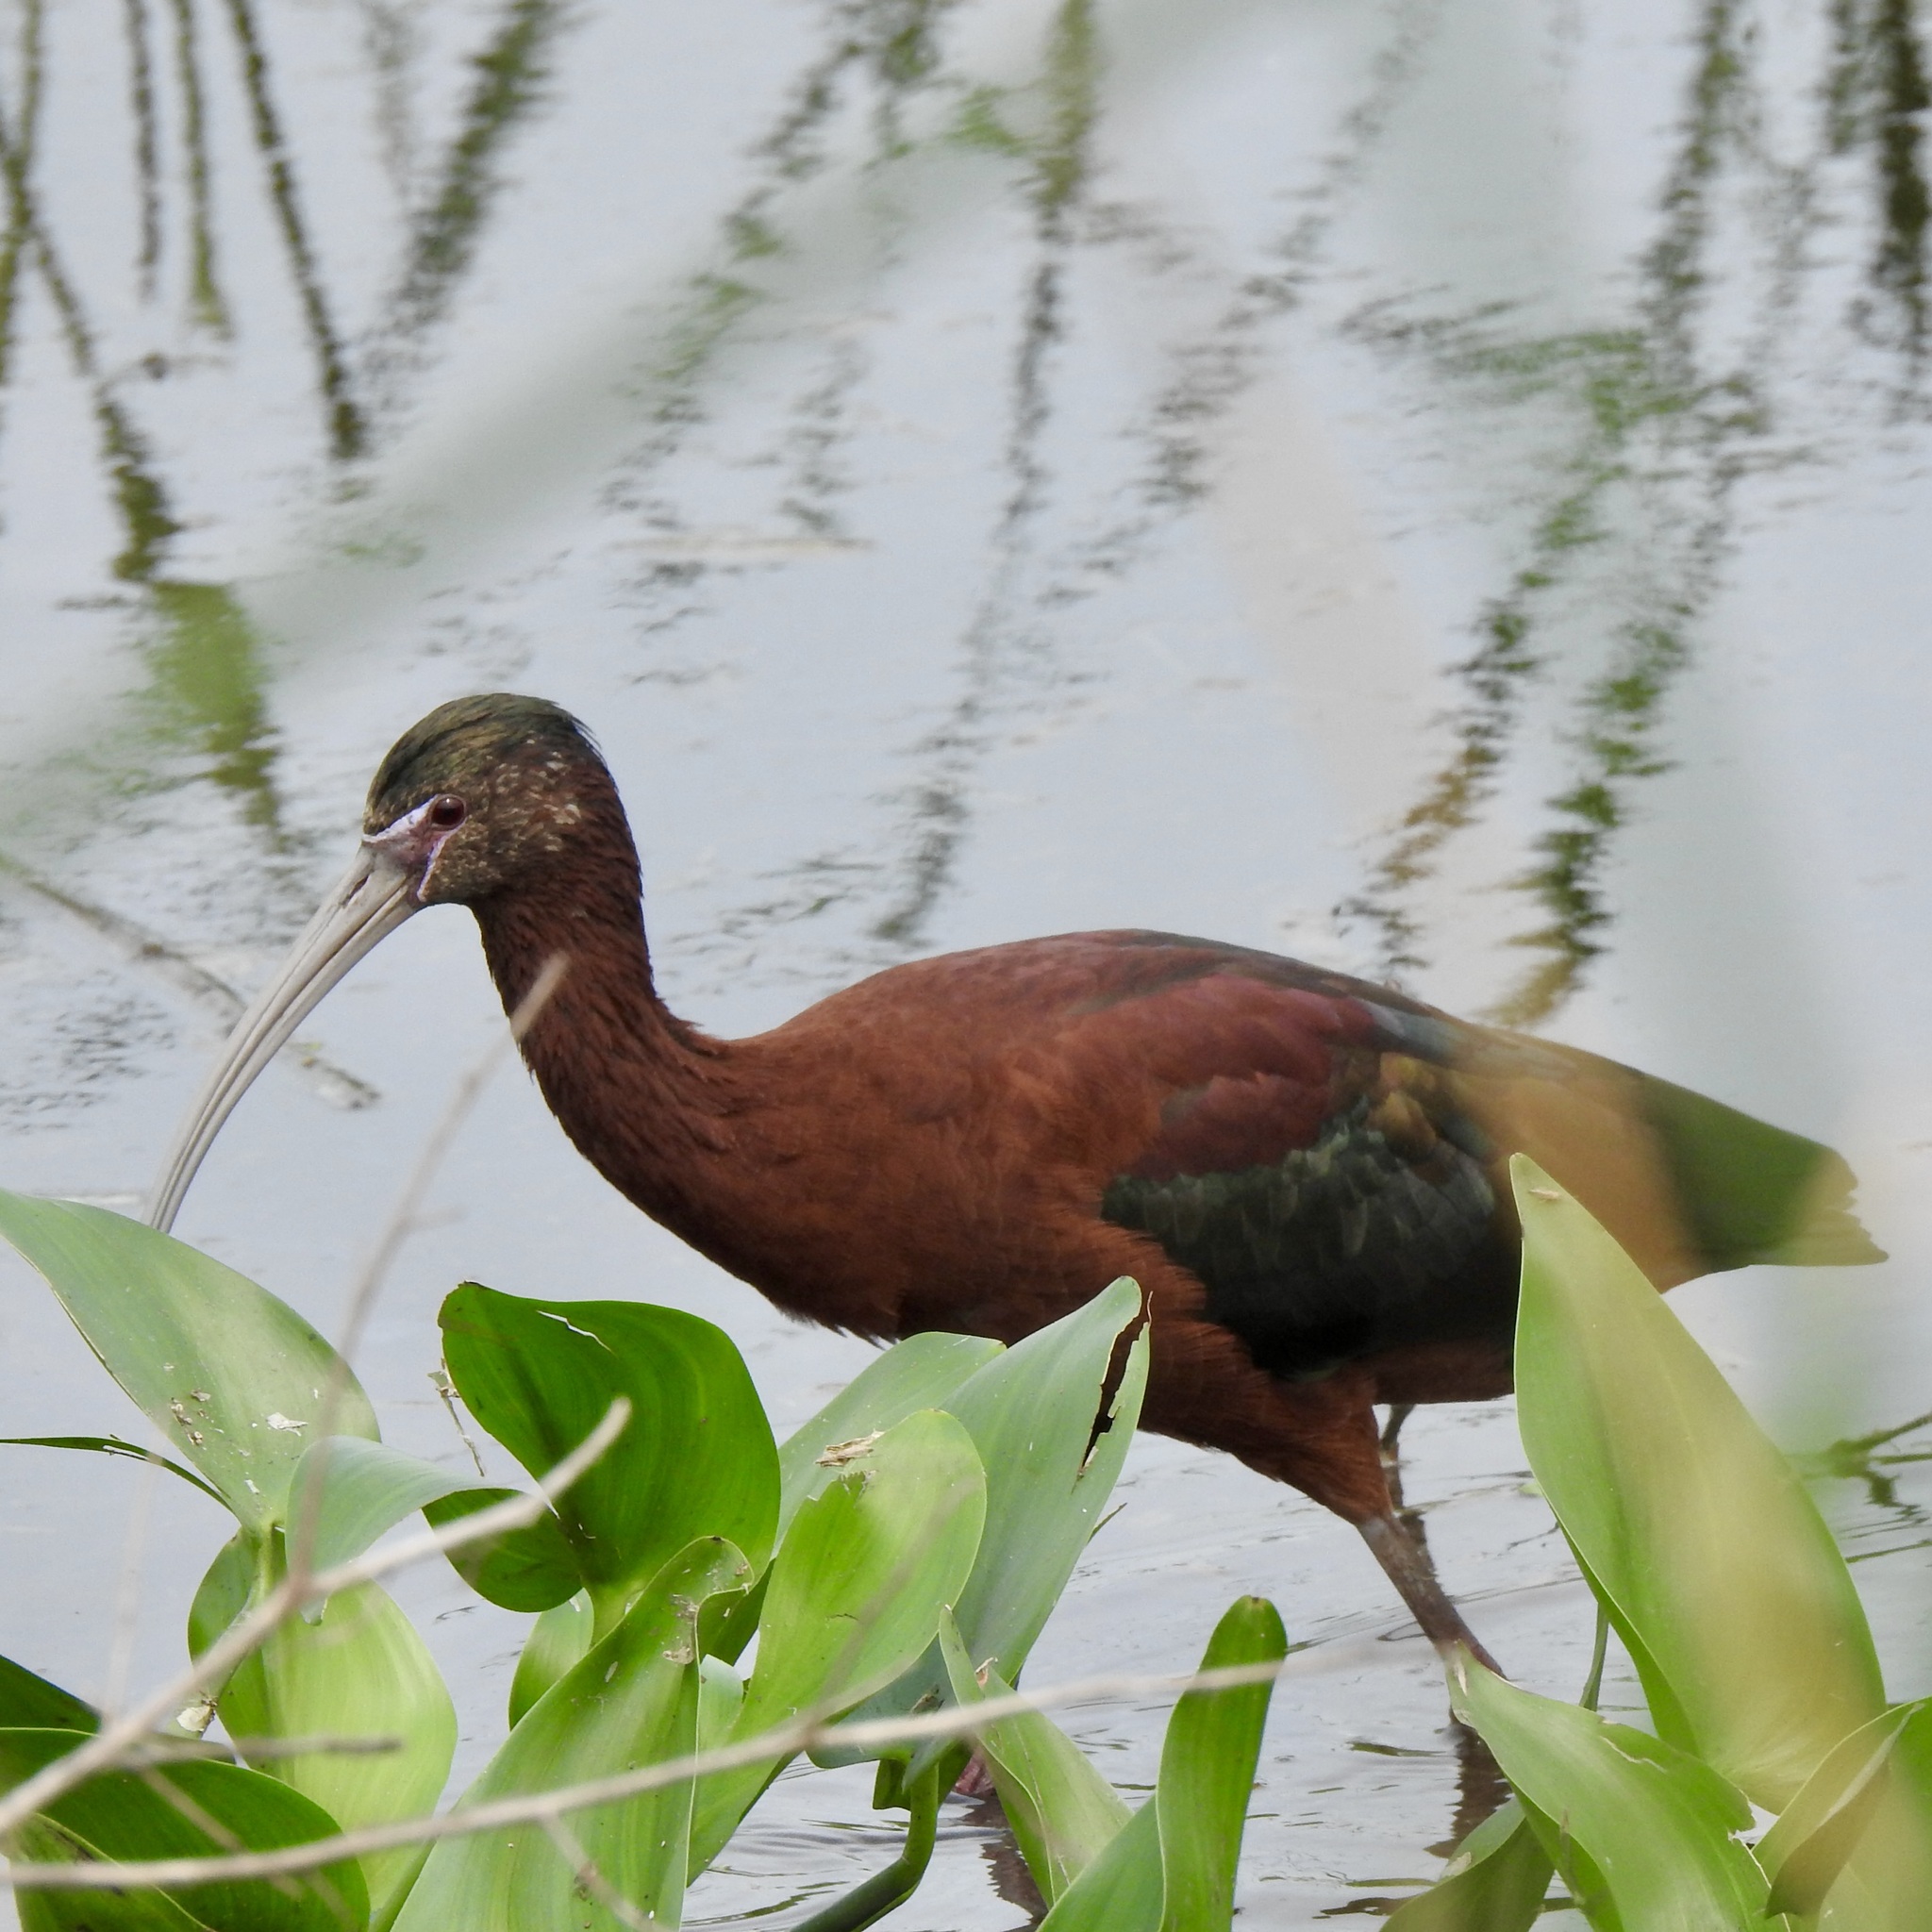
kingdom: Animalia
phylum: Chordata
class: Aves
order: Pelecaniformes
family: Threskiornithidae
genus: Plegadis
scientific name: Plegadis falcinellus
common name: Glossy ibis
